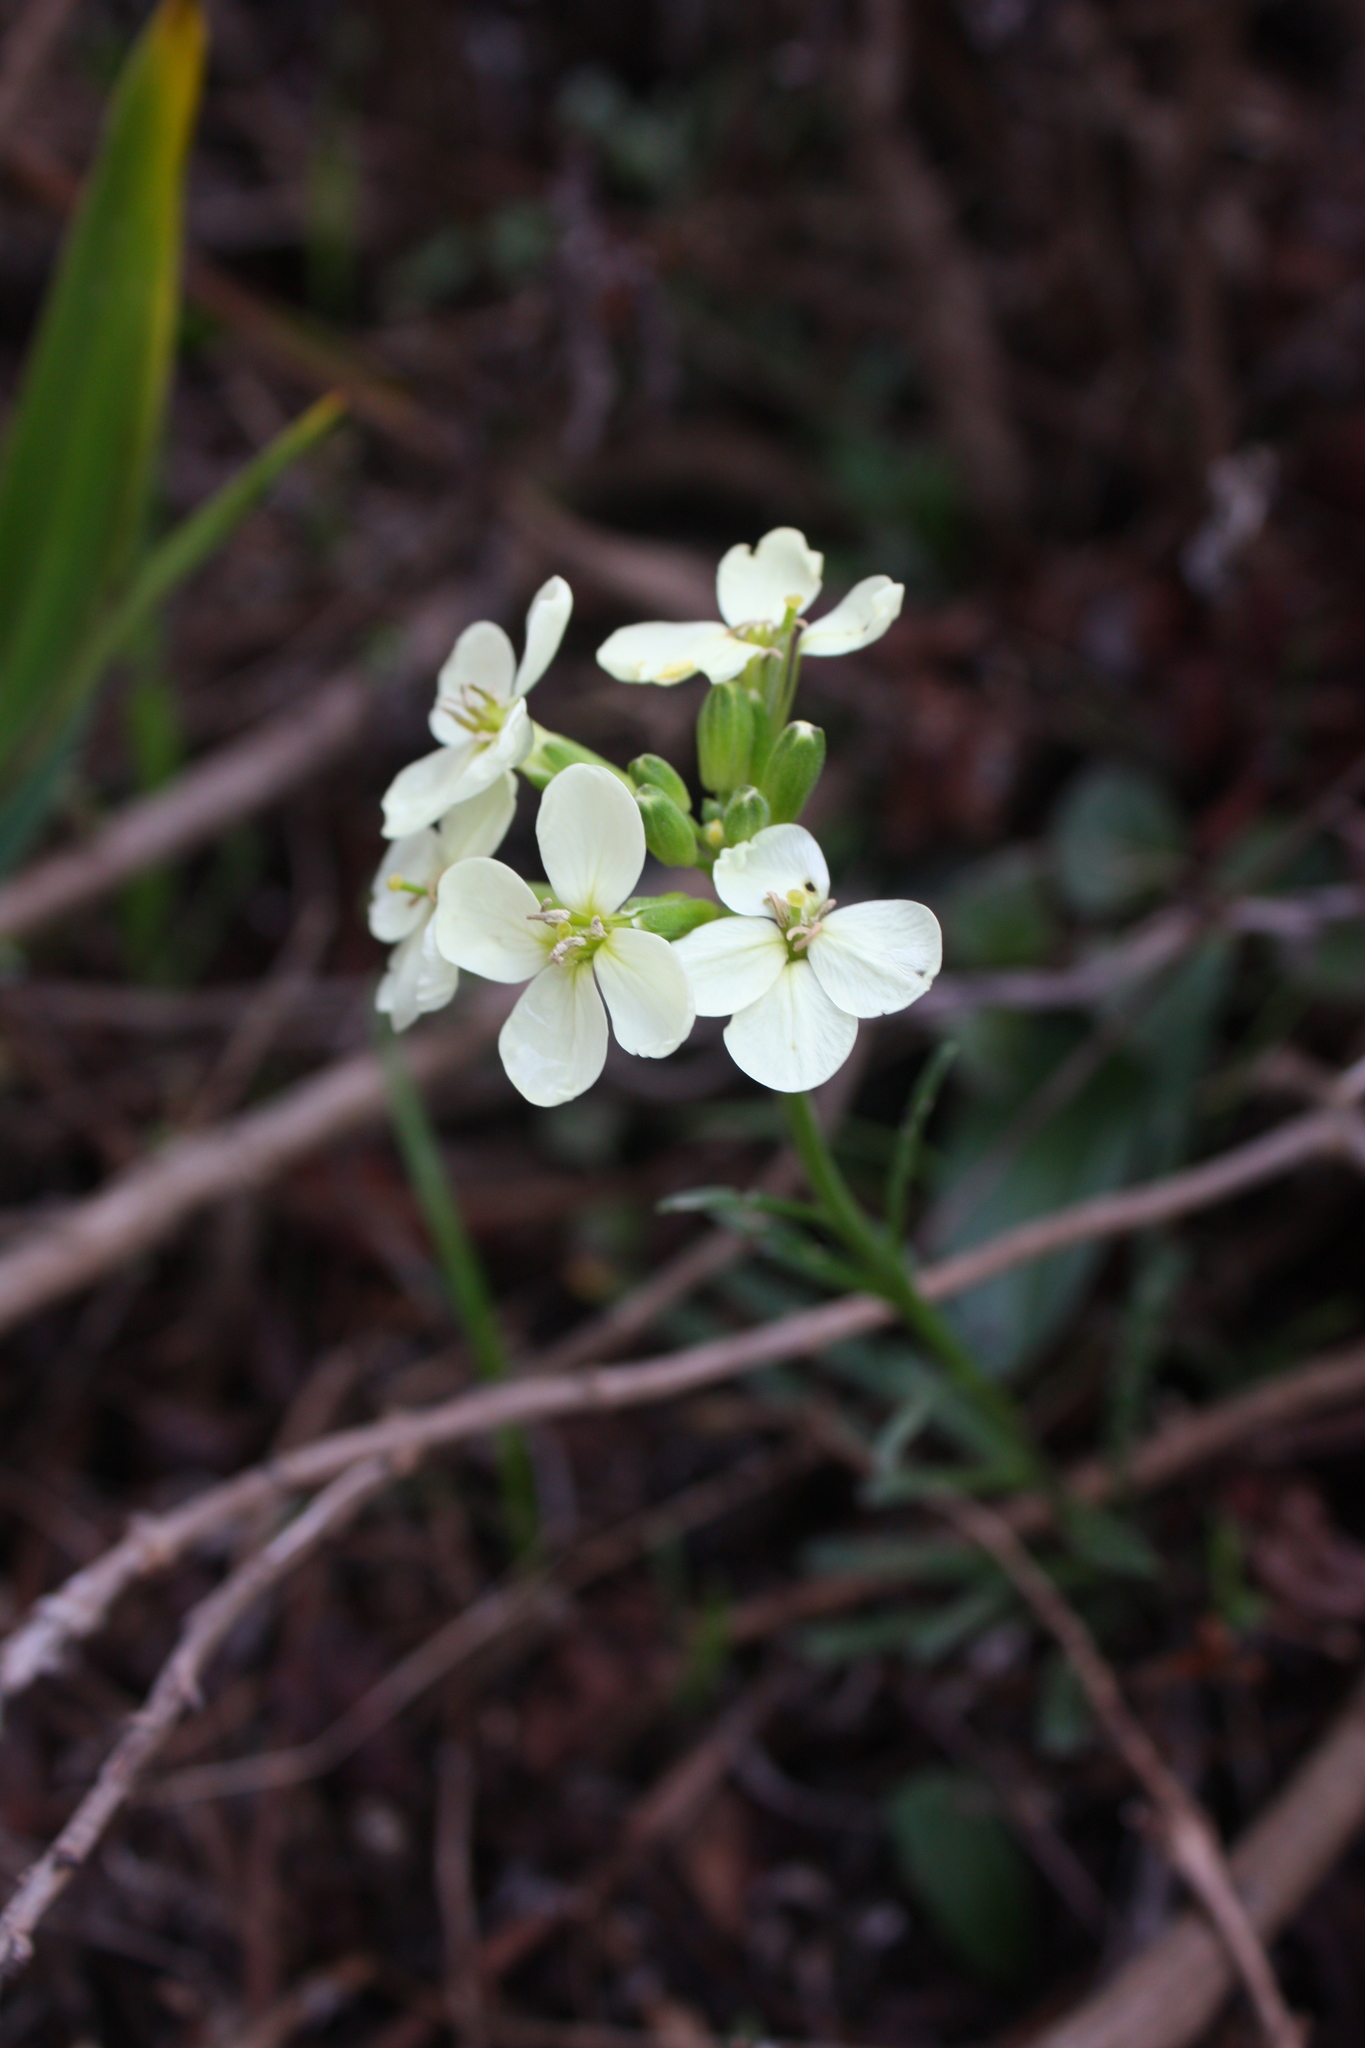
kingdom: Plantae
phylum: Tracheophyta
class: Magnoliopsida
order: Brassicales
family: Brassicaceae
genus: Erysimum
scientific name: Erysimum franciscanum
